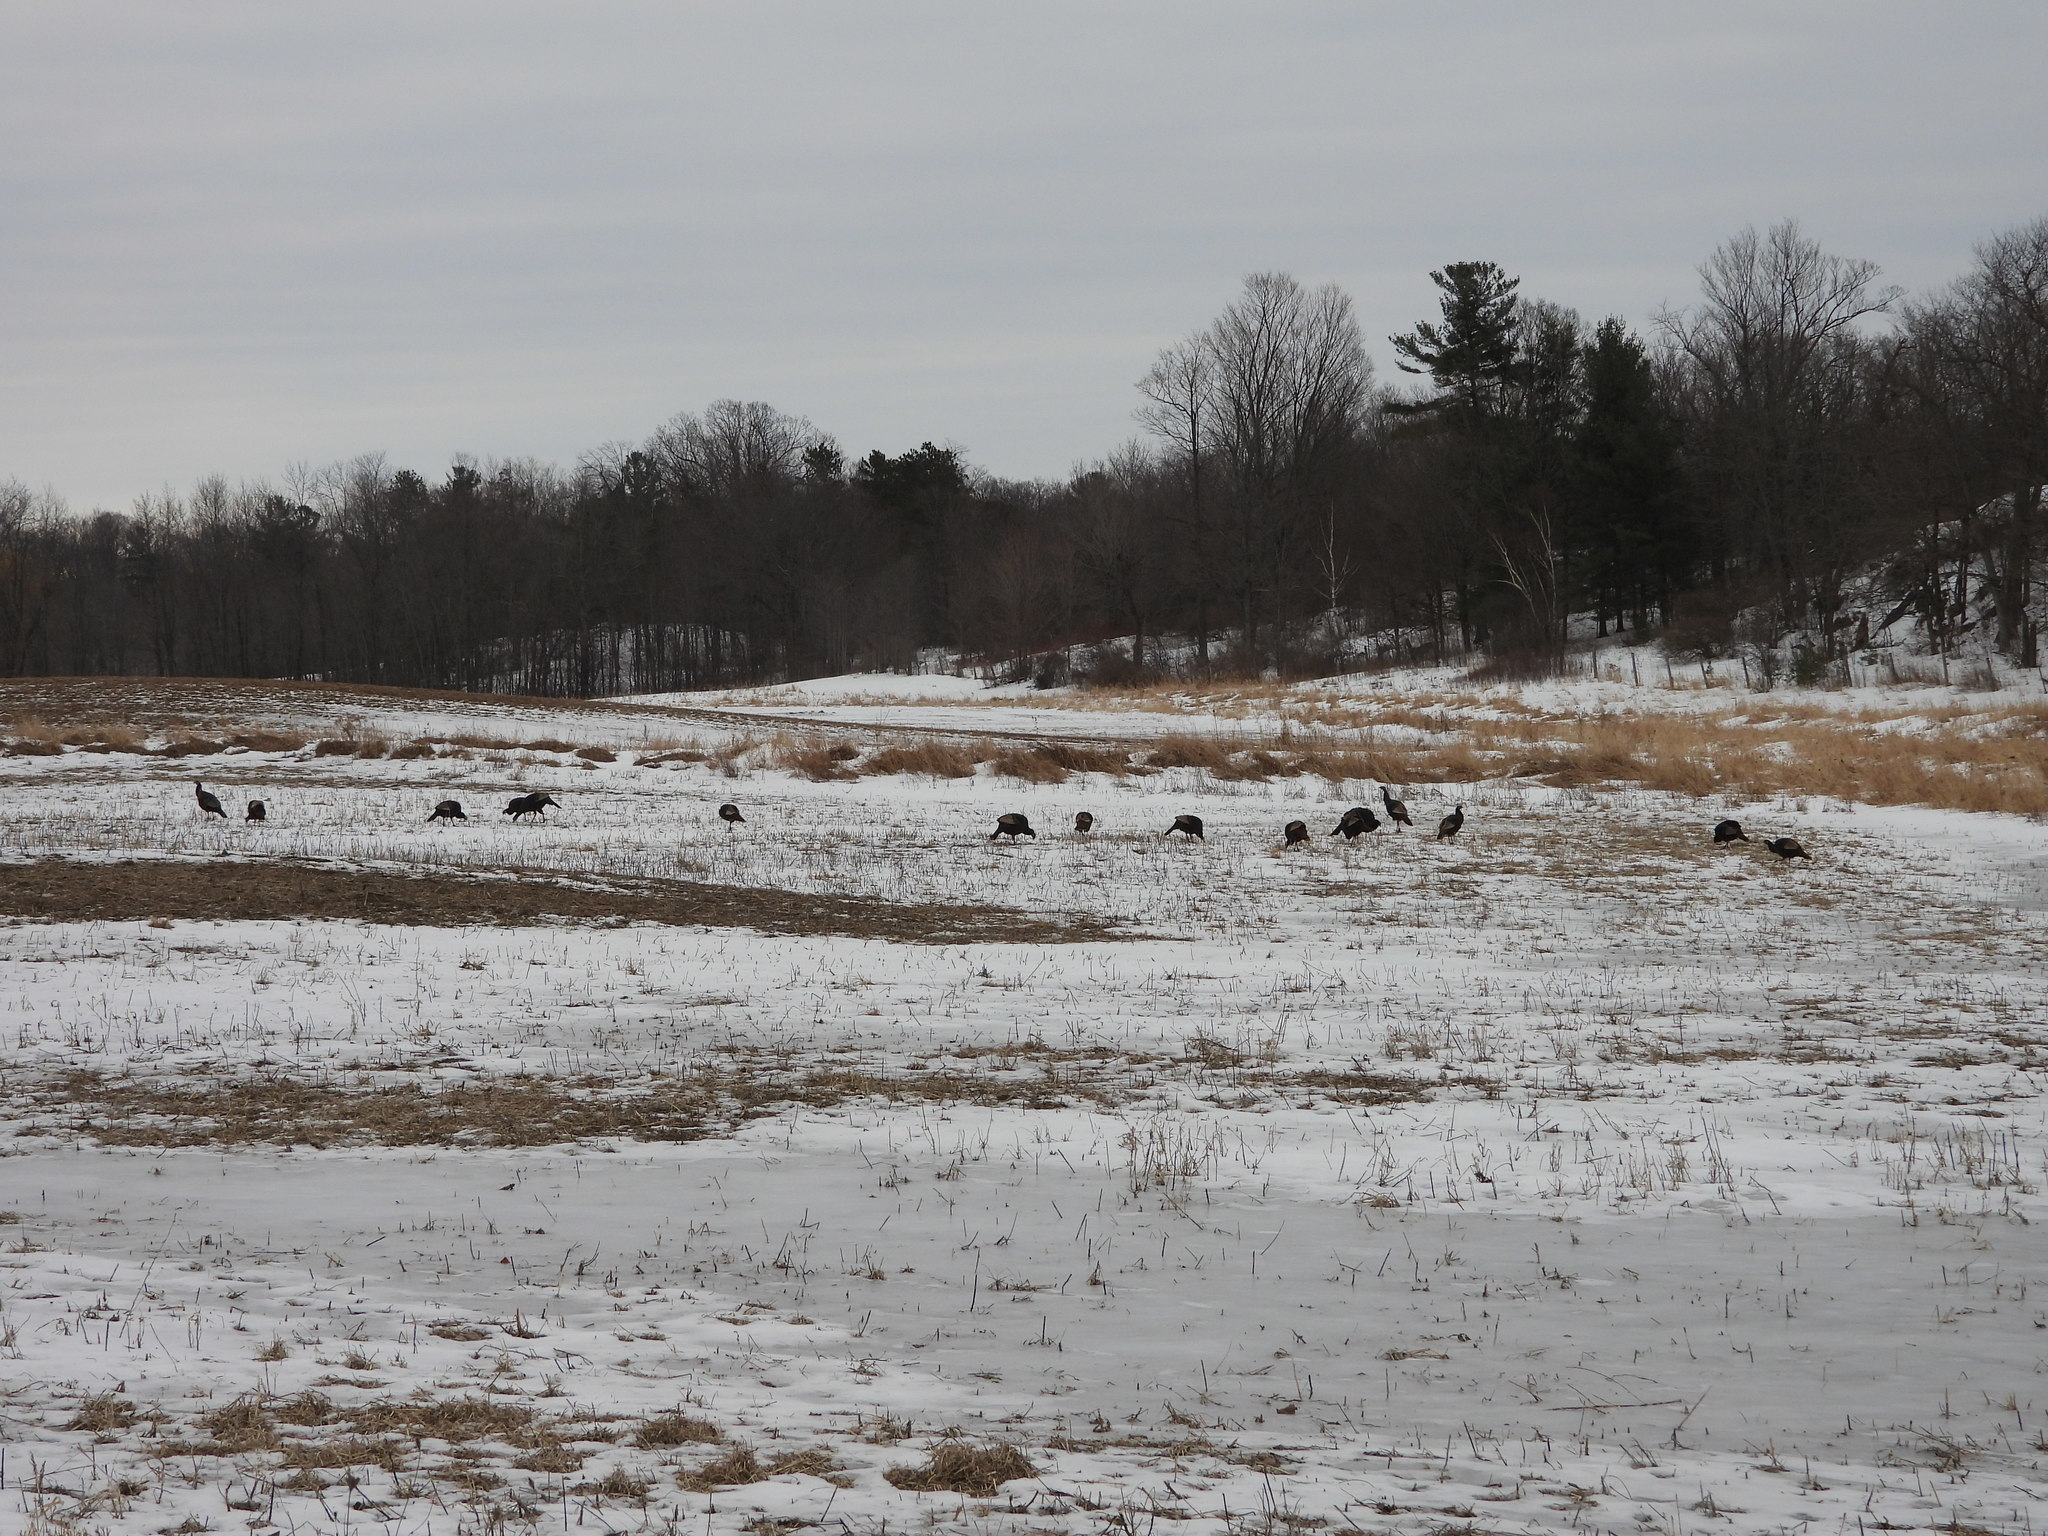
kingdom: Animalia
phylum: Chordata
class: Aves
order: Galliformes
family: Phasianidae
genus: Meleagris
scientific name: Meleagris gallopavo
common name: Wild turkey
